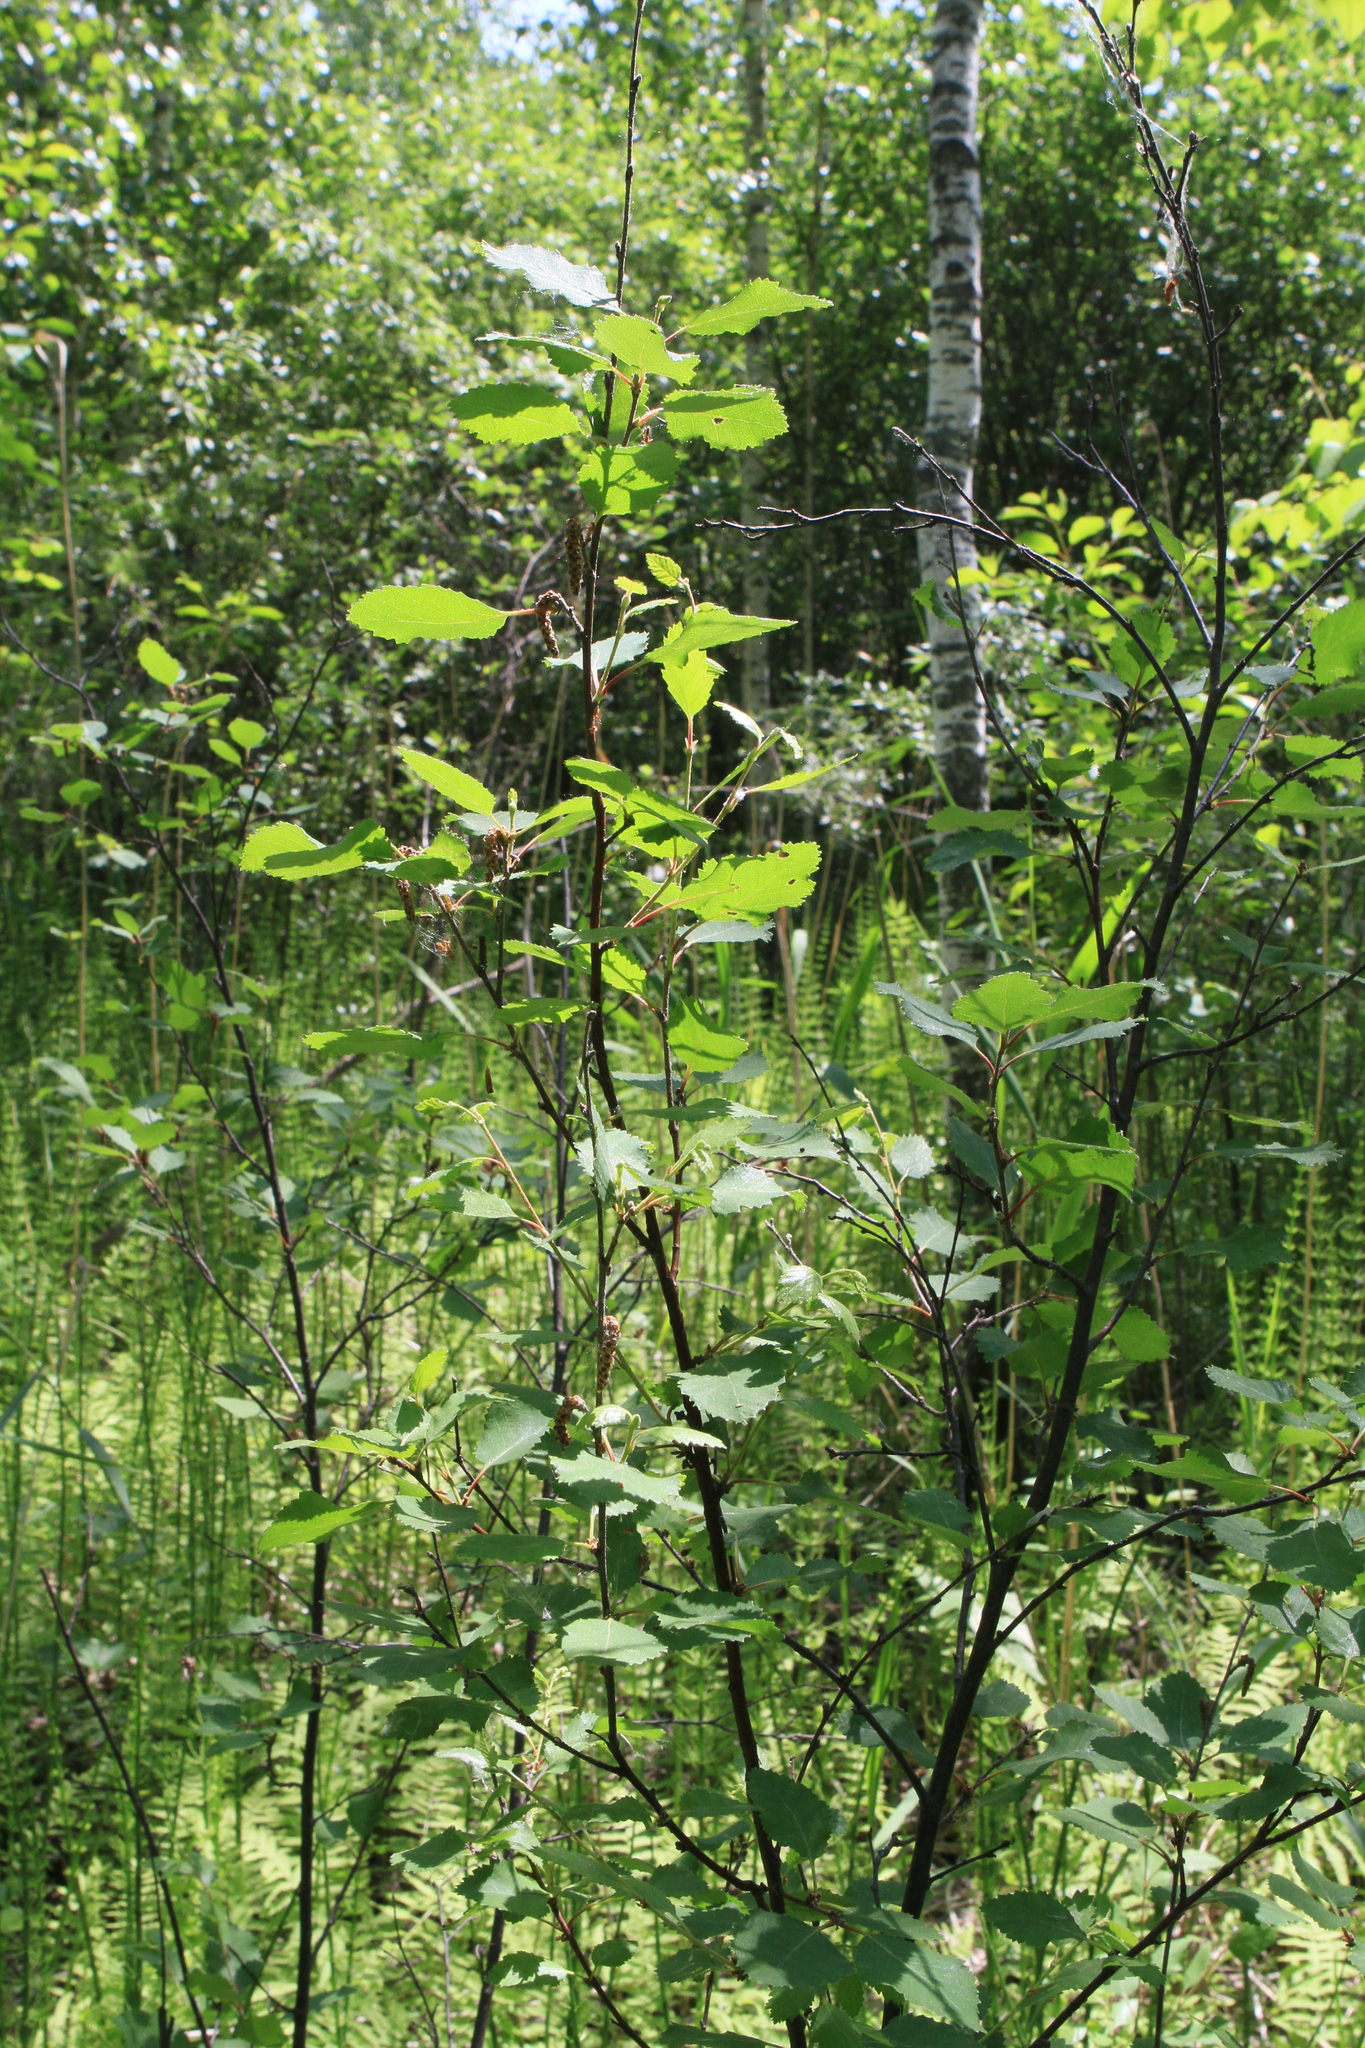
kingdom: Plantae
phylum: Tracheophyta
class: Magnoliopsida
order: Fagales
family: Betulaceae
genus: Betula
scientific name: Betula fruticosa
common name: Japanese bog birch
